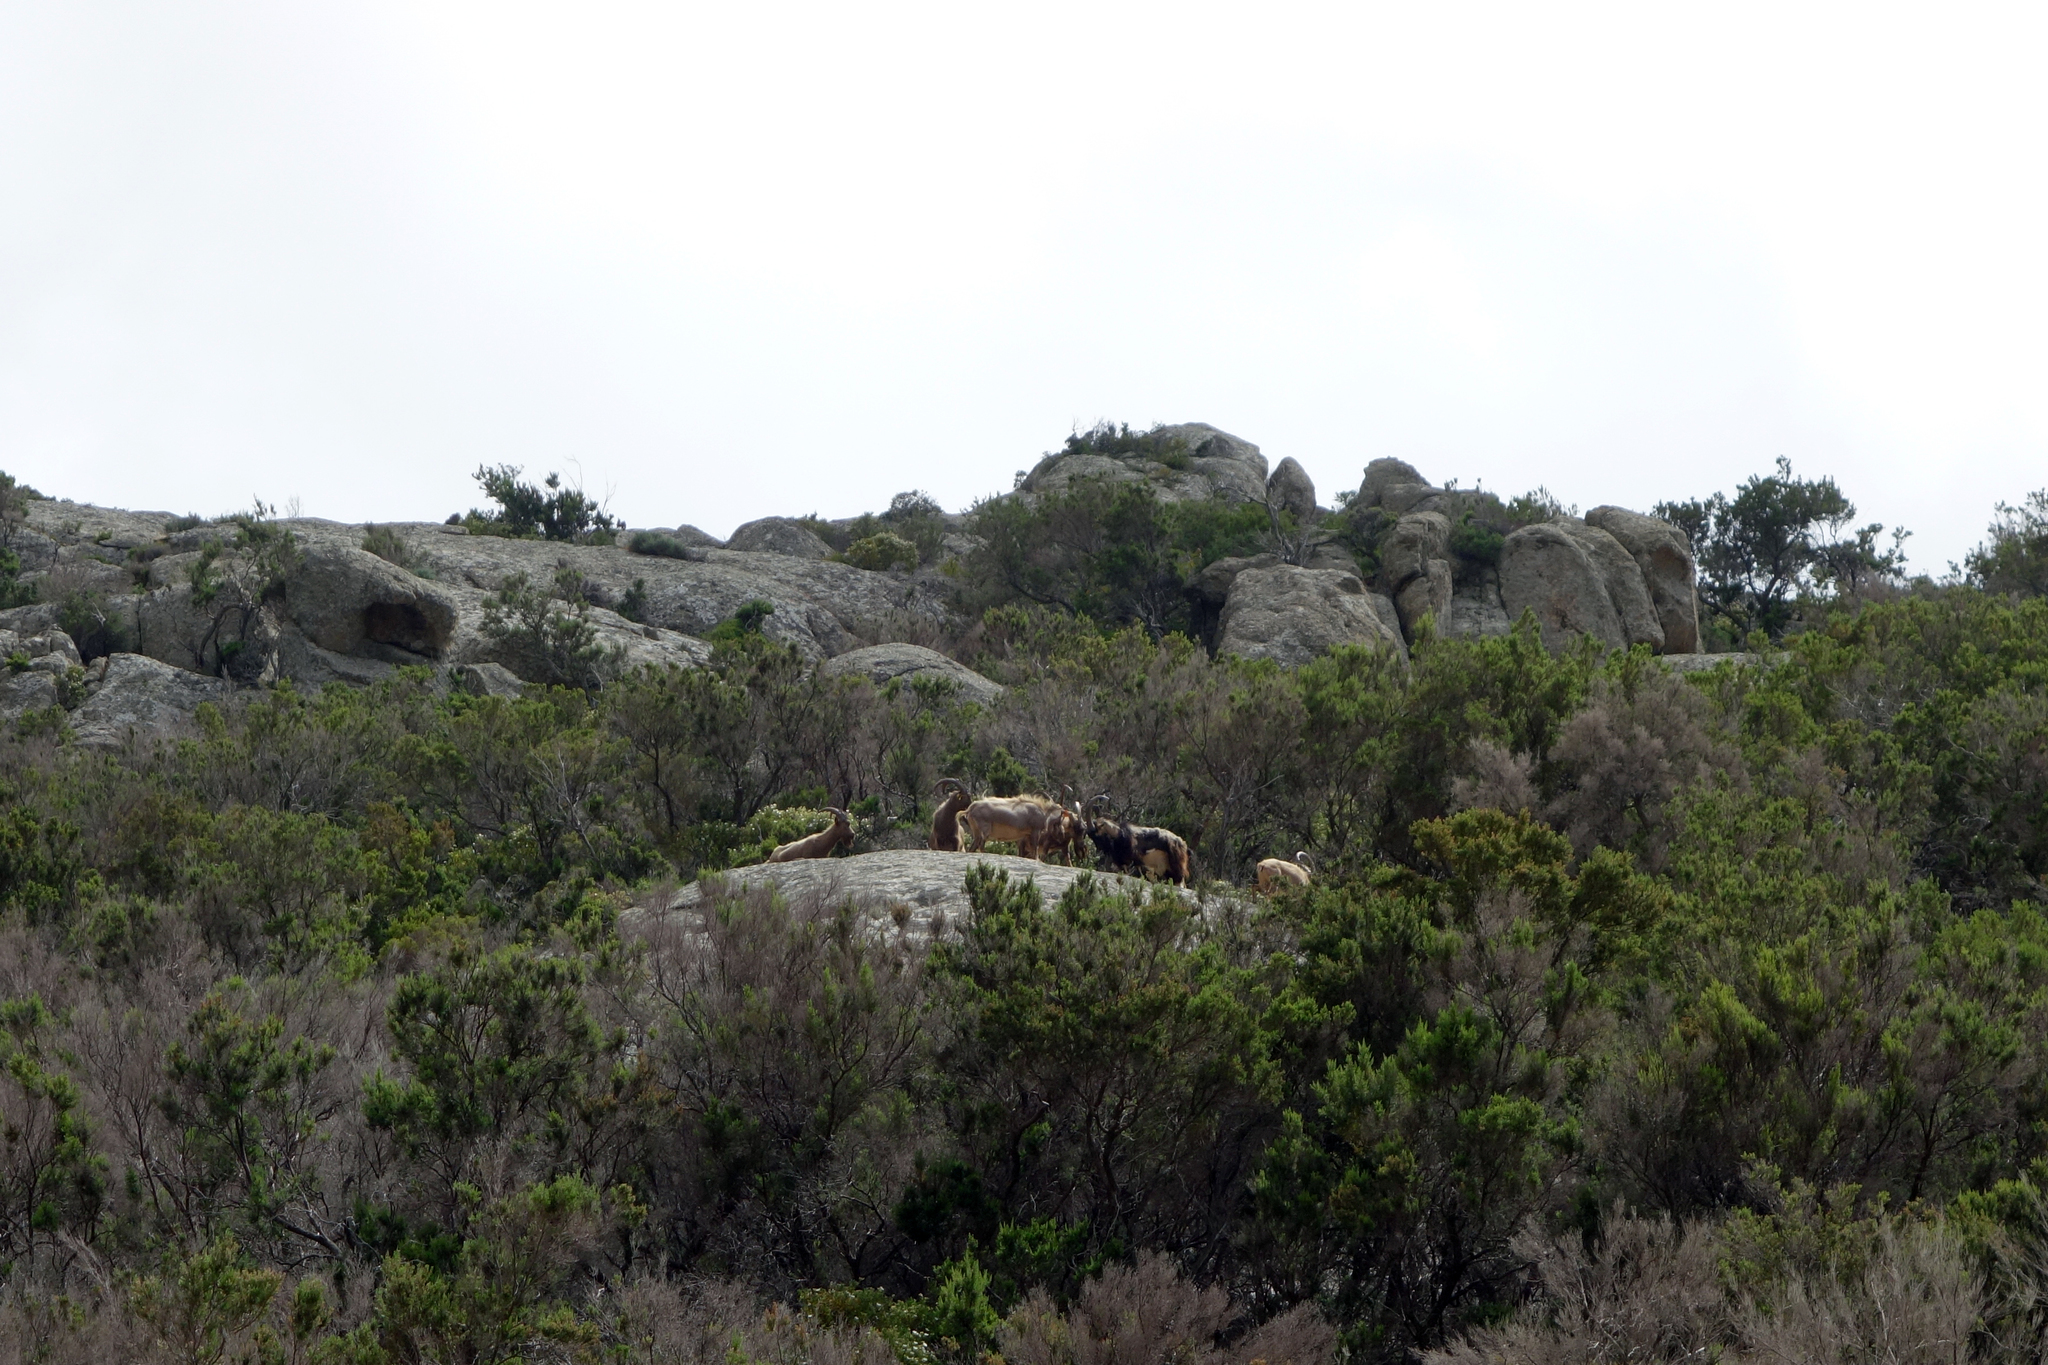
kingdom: Animalia
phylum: Chordata
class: Mammalia
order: Artiodactyla
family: Bovidae
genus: Capra
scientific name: Capra hircus
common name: Domestic goat
